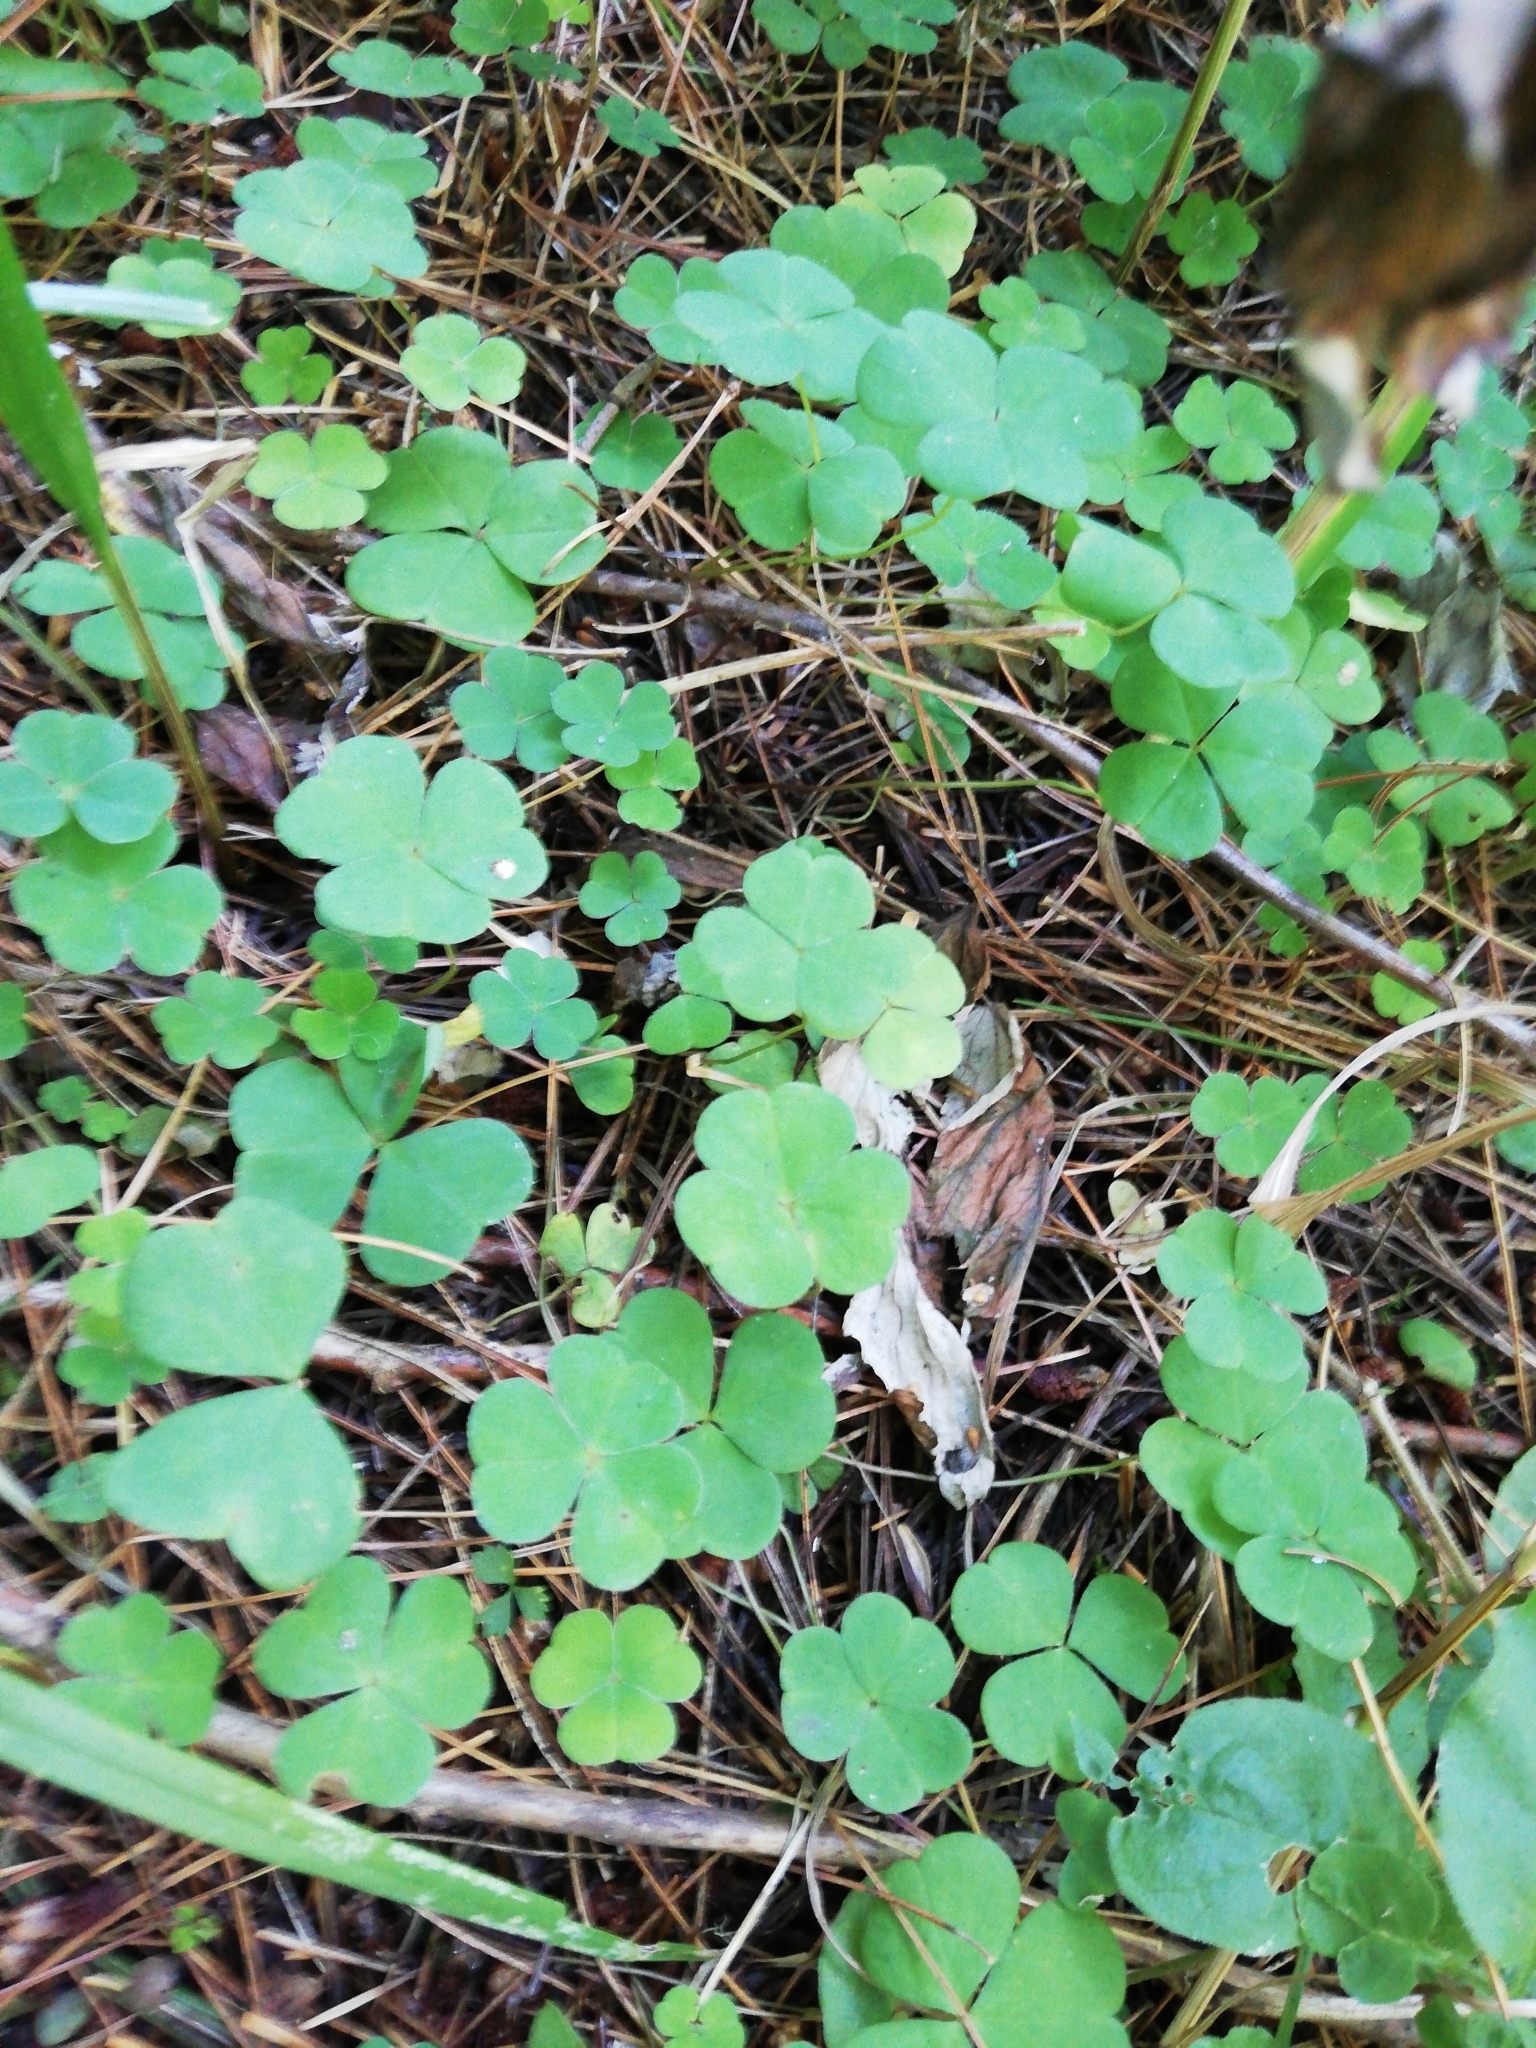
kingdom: Plantae
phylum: Tracheophyta
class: Magnoliopsida
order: Oxalidales
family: Oxalidaceae
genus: Oxalis
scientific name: Oxalis acetosella
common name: Wood-sorrel
